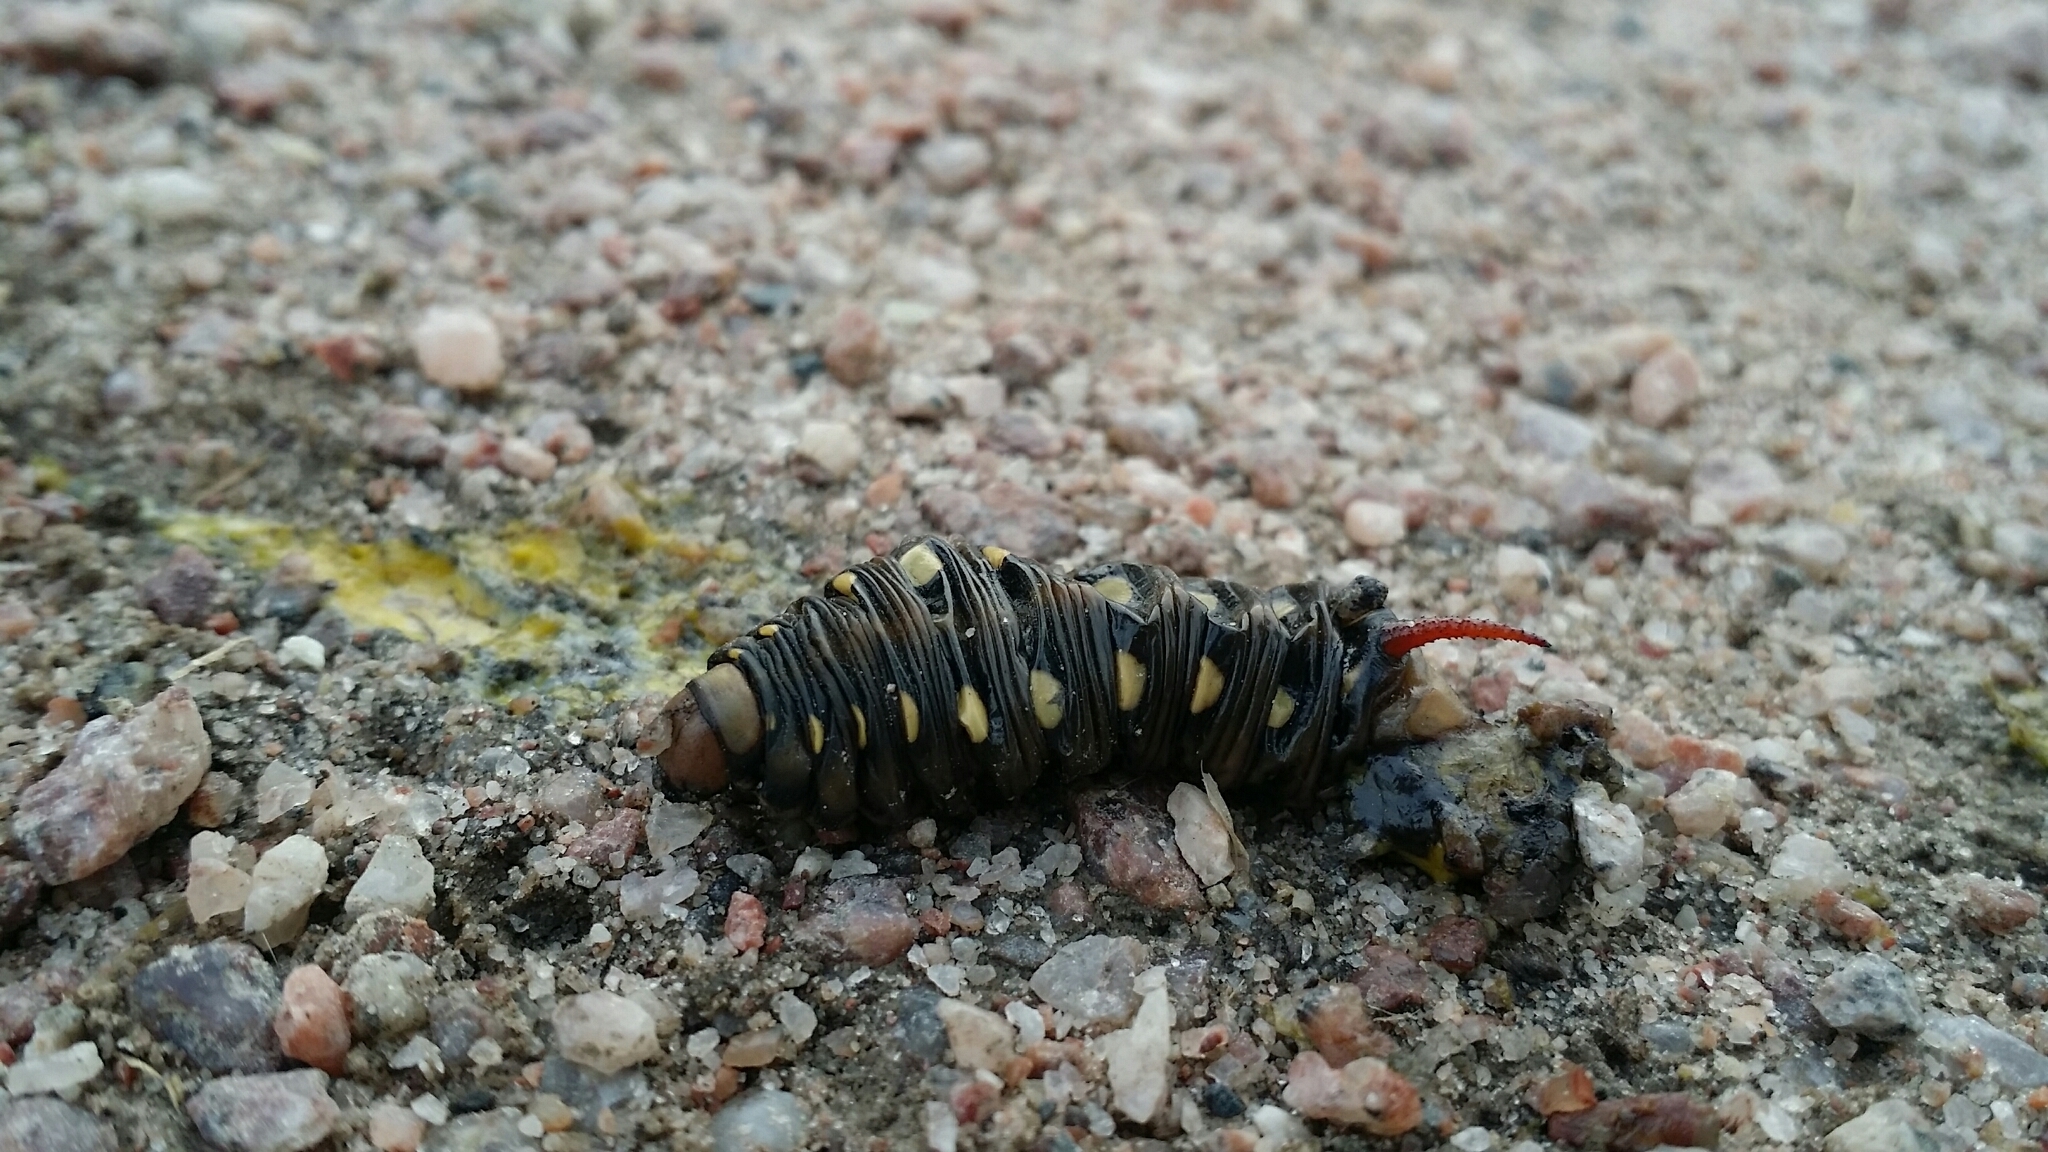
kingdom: Animalia
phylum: Arthropoda
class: Insecta
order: Lepidoptera
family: Sphingidae
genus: Hyles
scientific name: Hyles gallii
